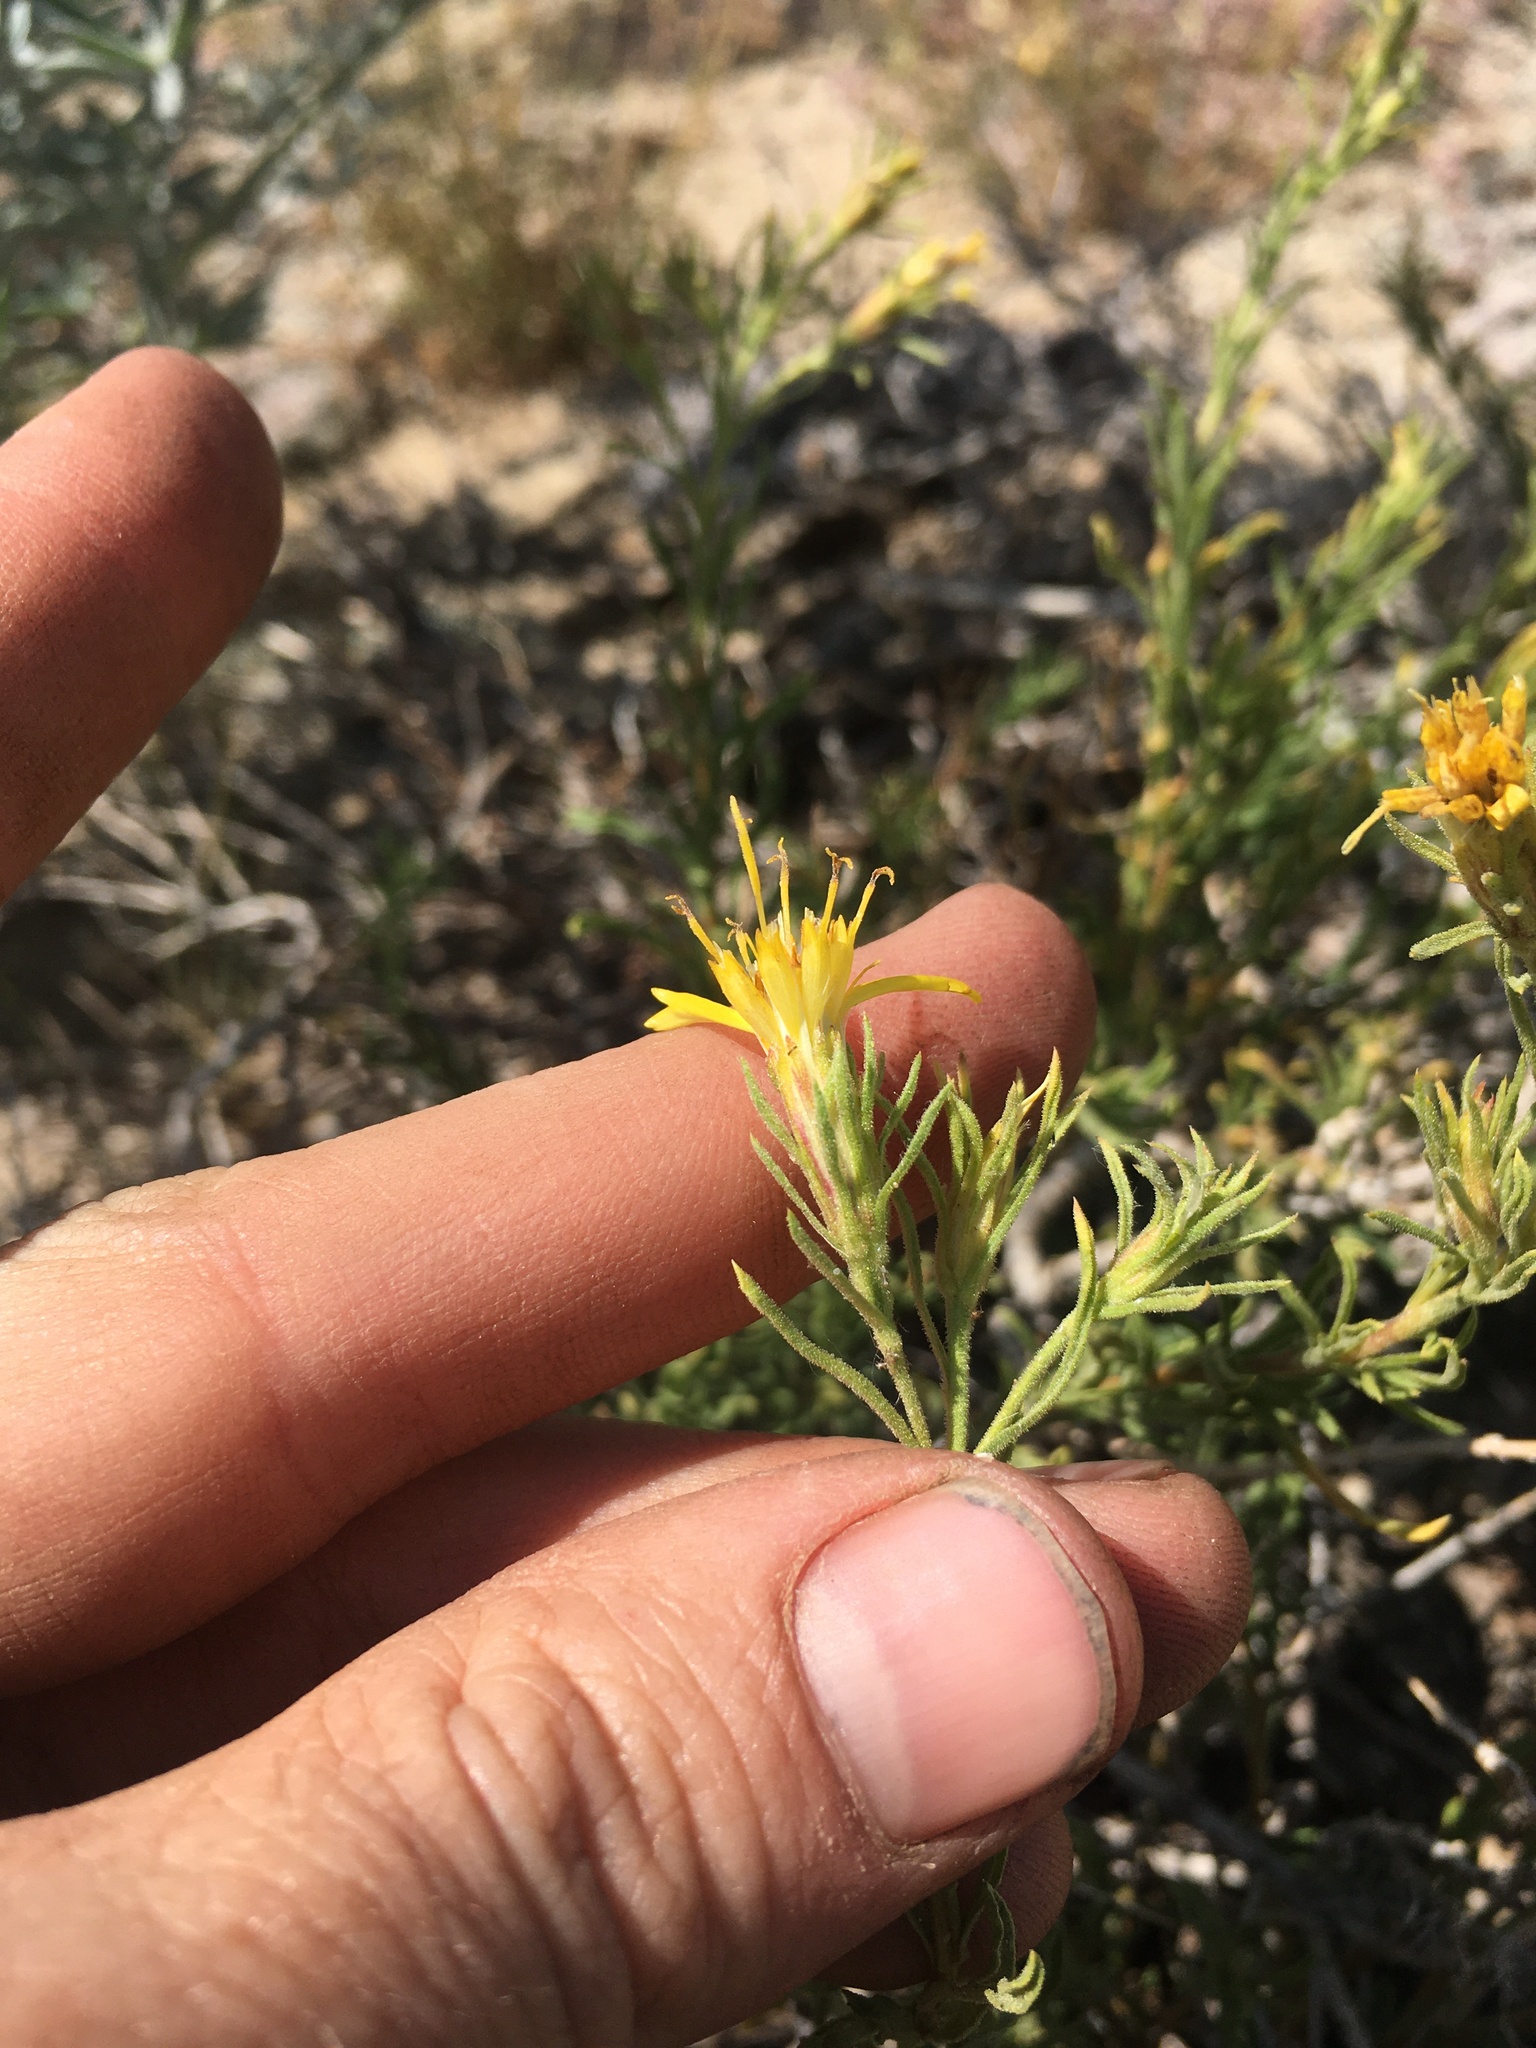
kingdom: Plantae
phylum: Tracheophyta
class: Magnoliopsida
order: Asterales
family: Asteraceae
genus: Ericameria
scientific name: Ericameria suffruticosa
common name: Goldenweed
